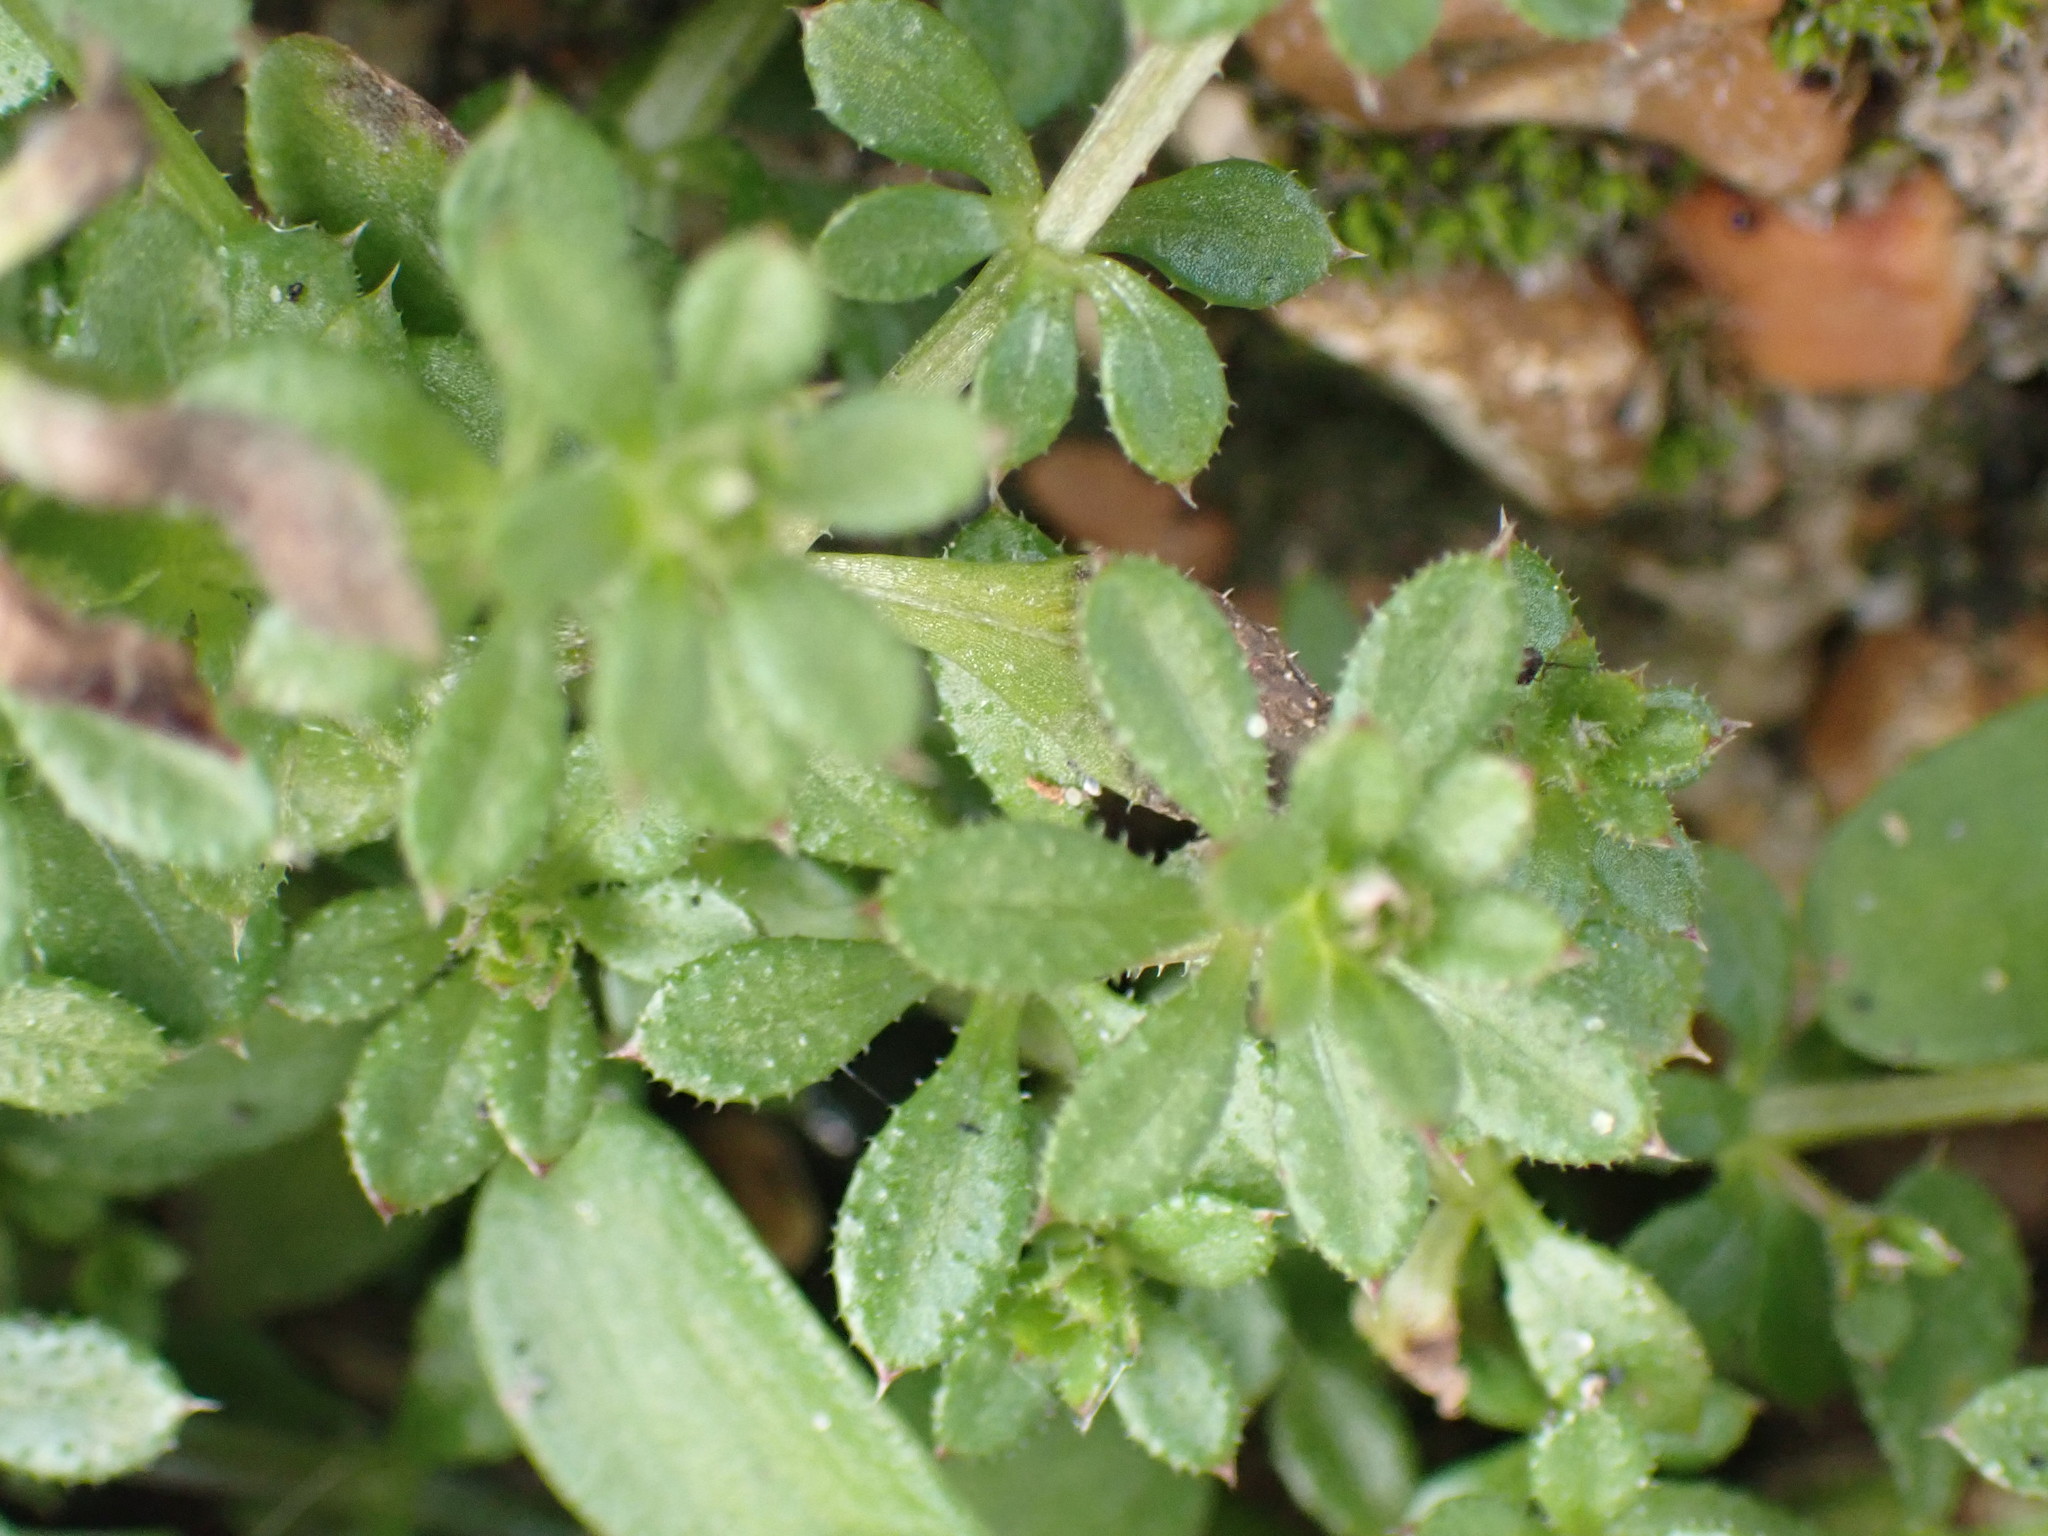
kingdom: Plantae
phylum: Tracheophyta
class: Magnoliopsida
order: Gentianales
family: Rubiaceae
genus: Galium
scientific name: Galium aparine
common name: Cleavers
